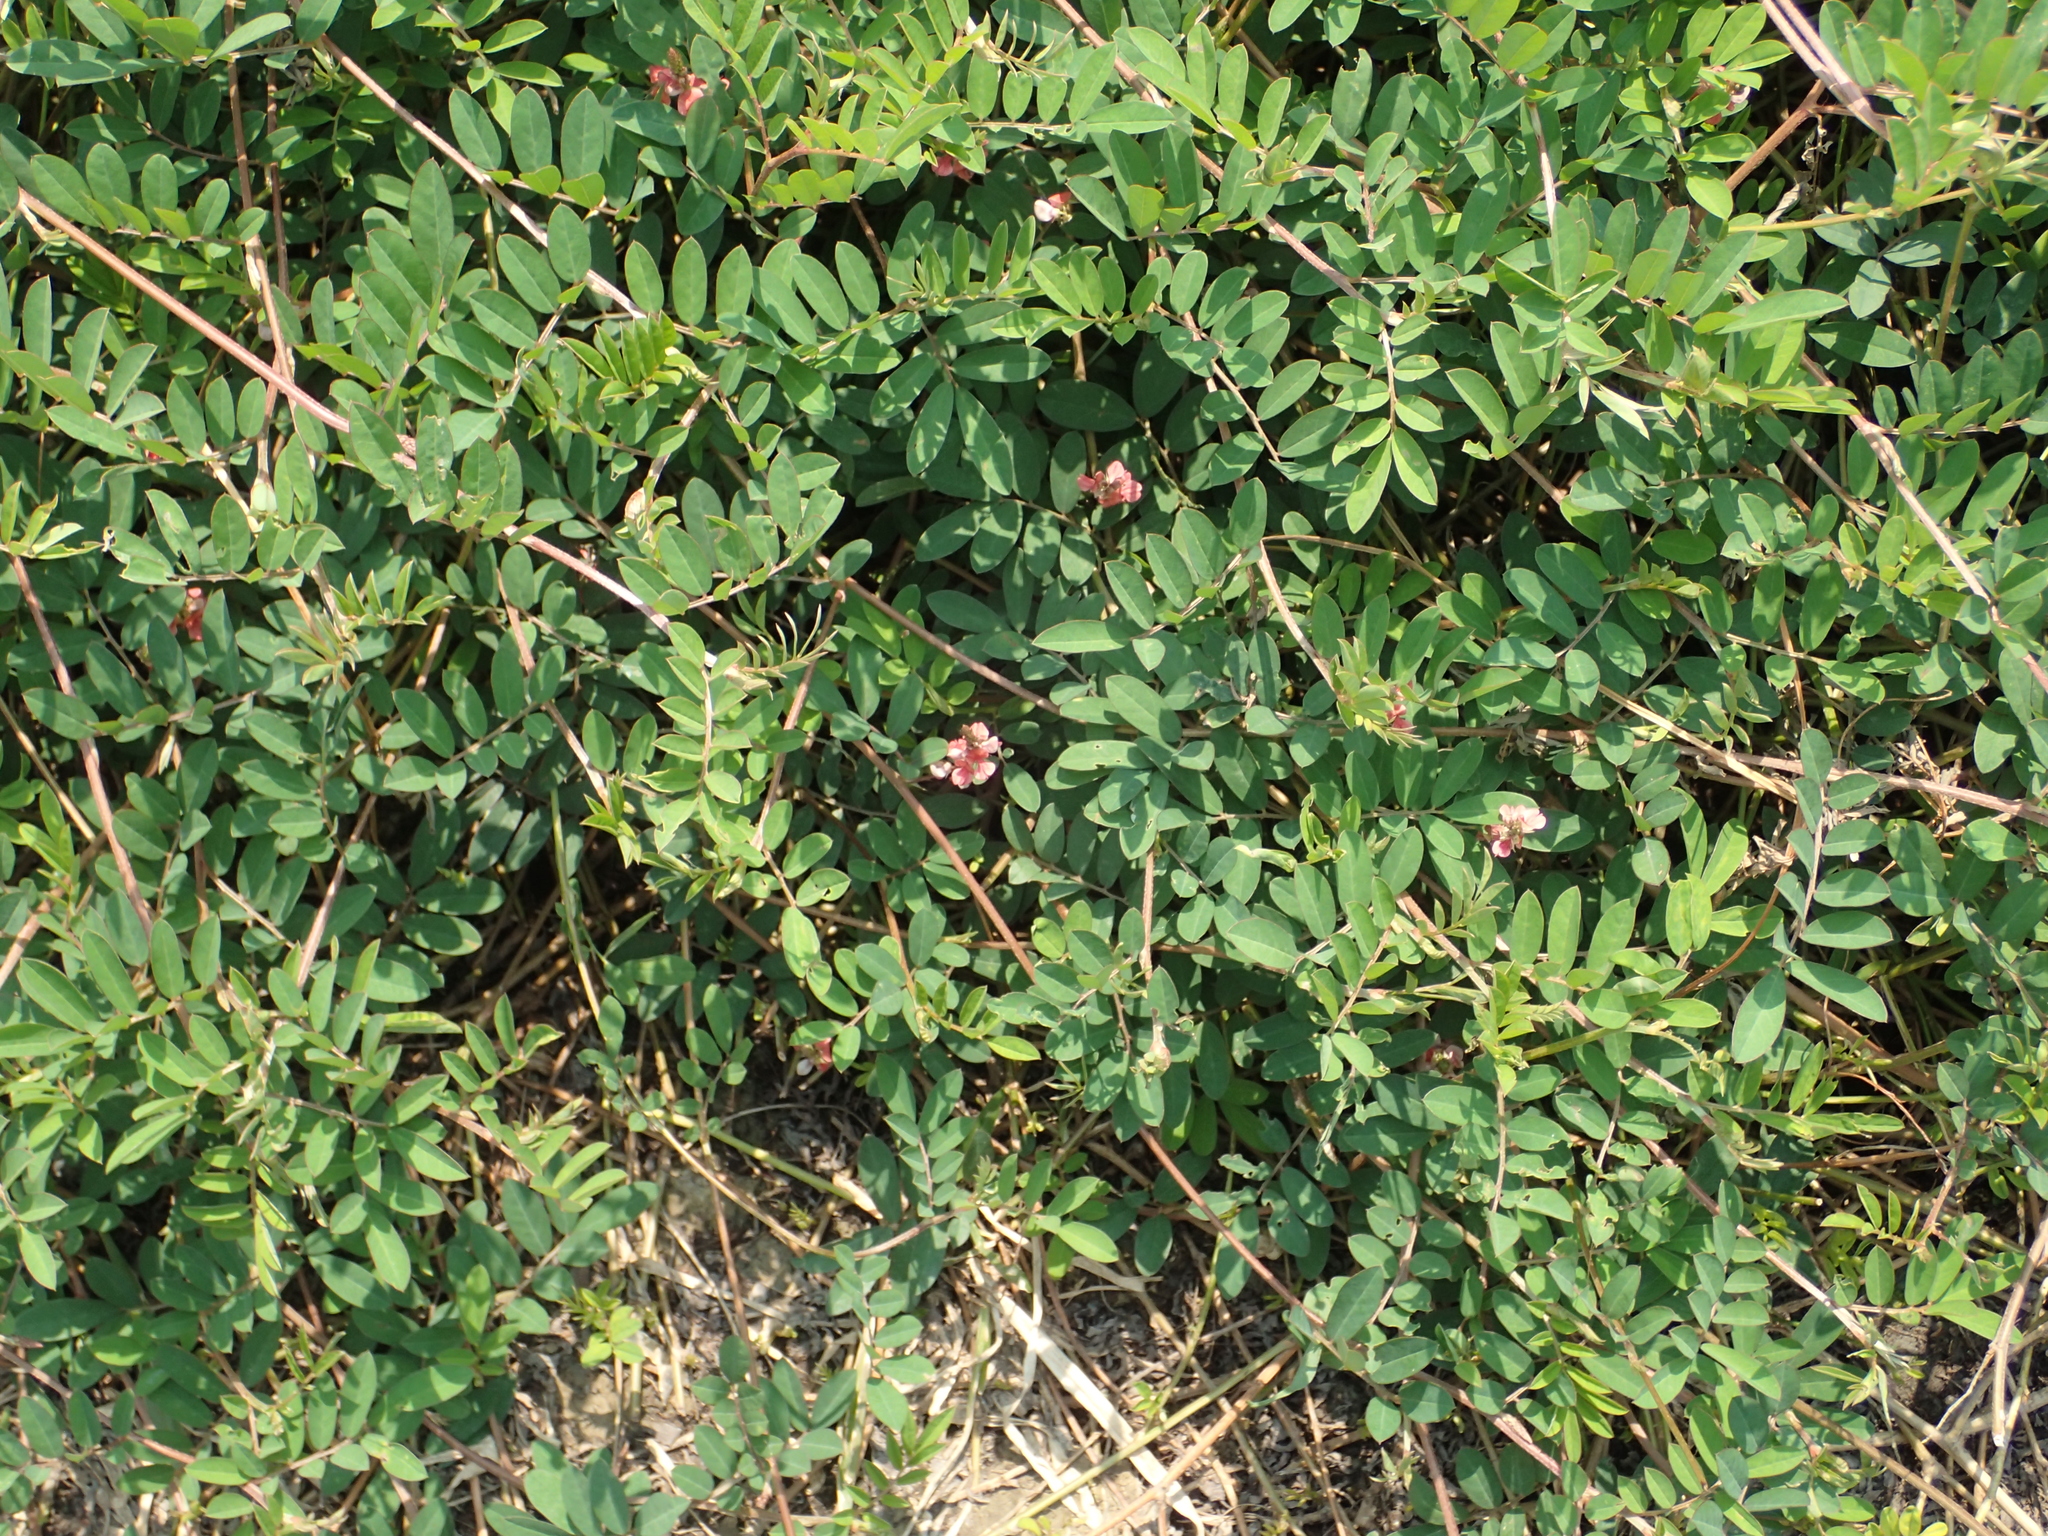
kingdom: Plantae
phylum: Tracheophyta
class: Magnoliopsida
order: Fabales
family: Fabaceae
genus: Indigofera
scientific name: Indigofera hendecaphylla
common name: Trailing indigo
